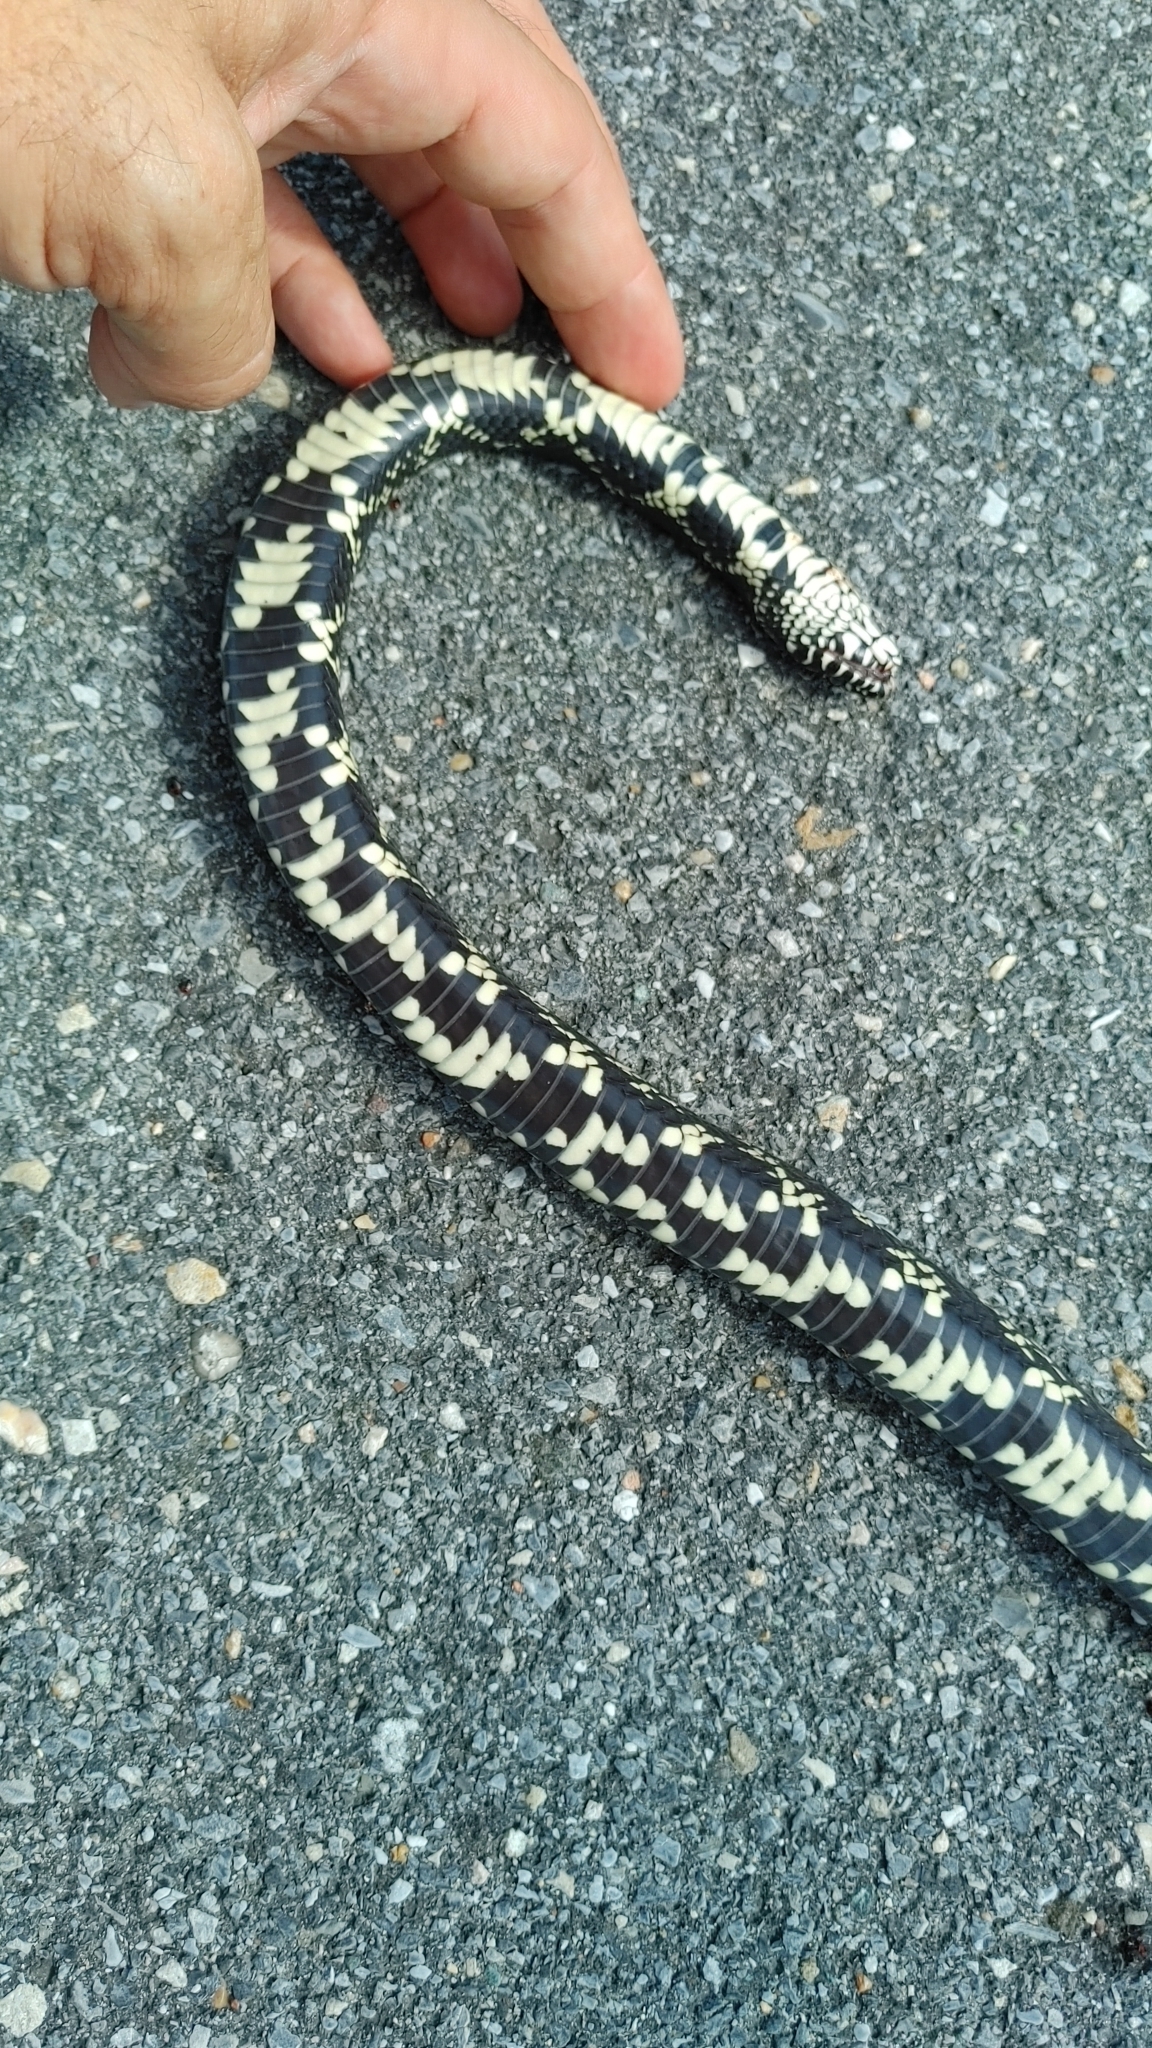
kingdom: Animalia
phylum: Chordata
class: Squamata
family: Colubridae
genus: Lampropeltis
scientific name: Lampropeltis getula
